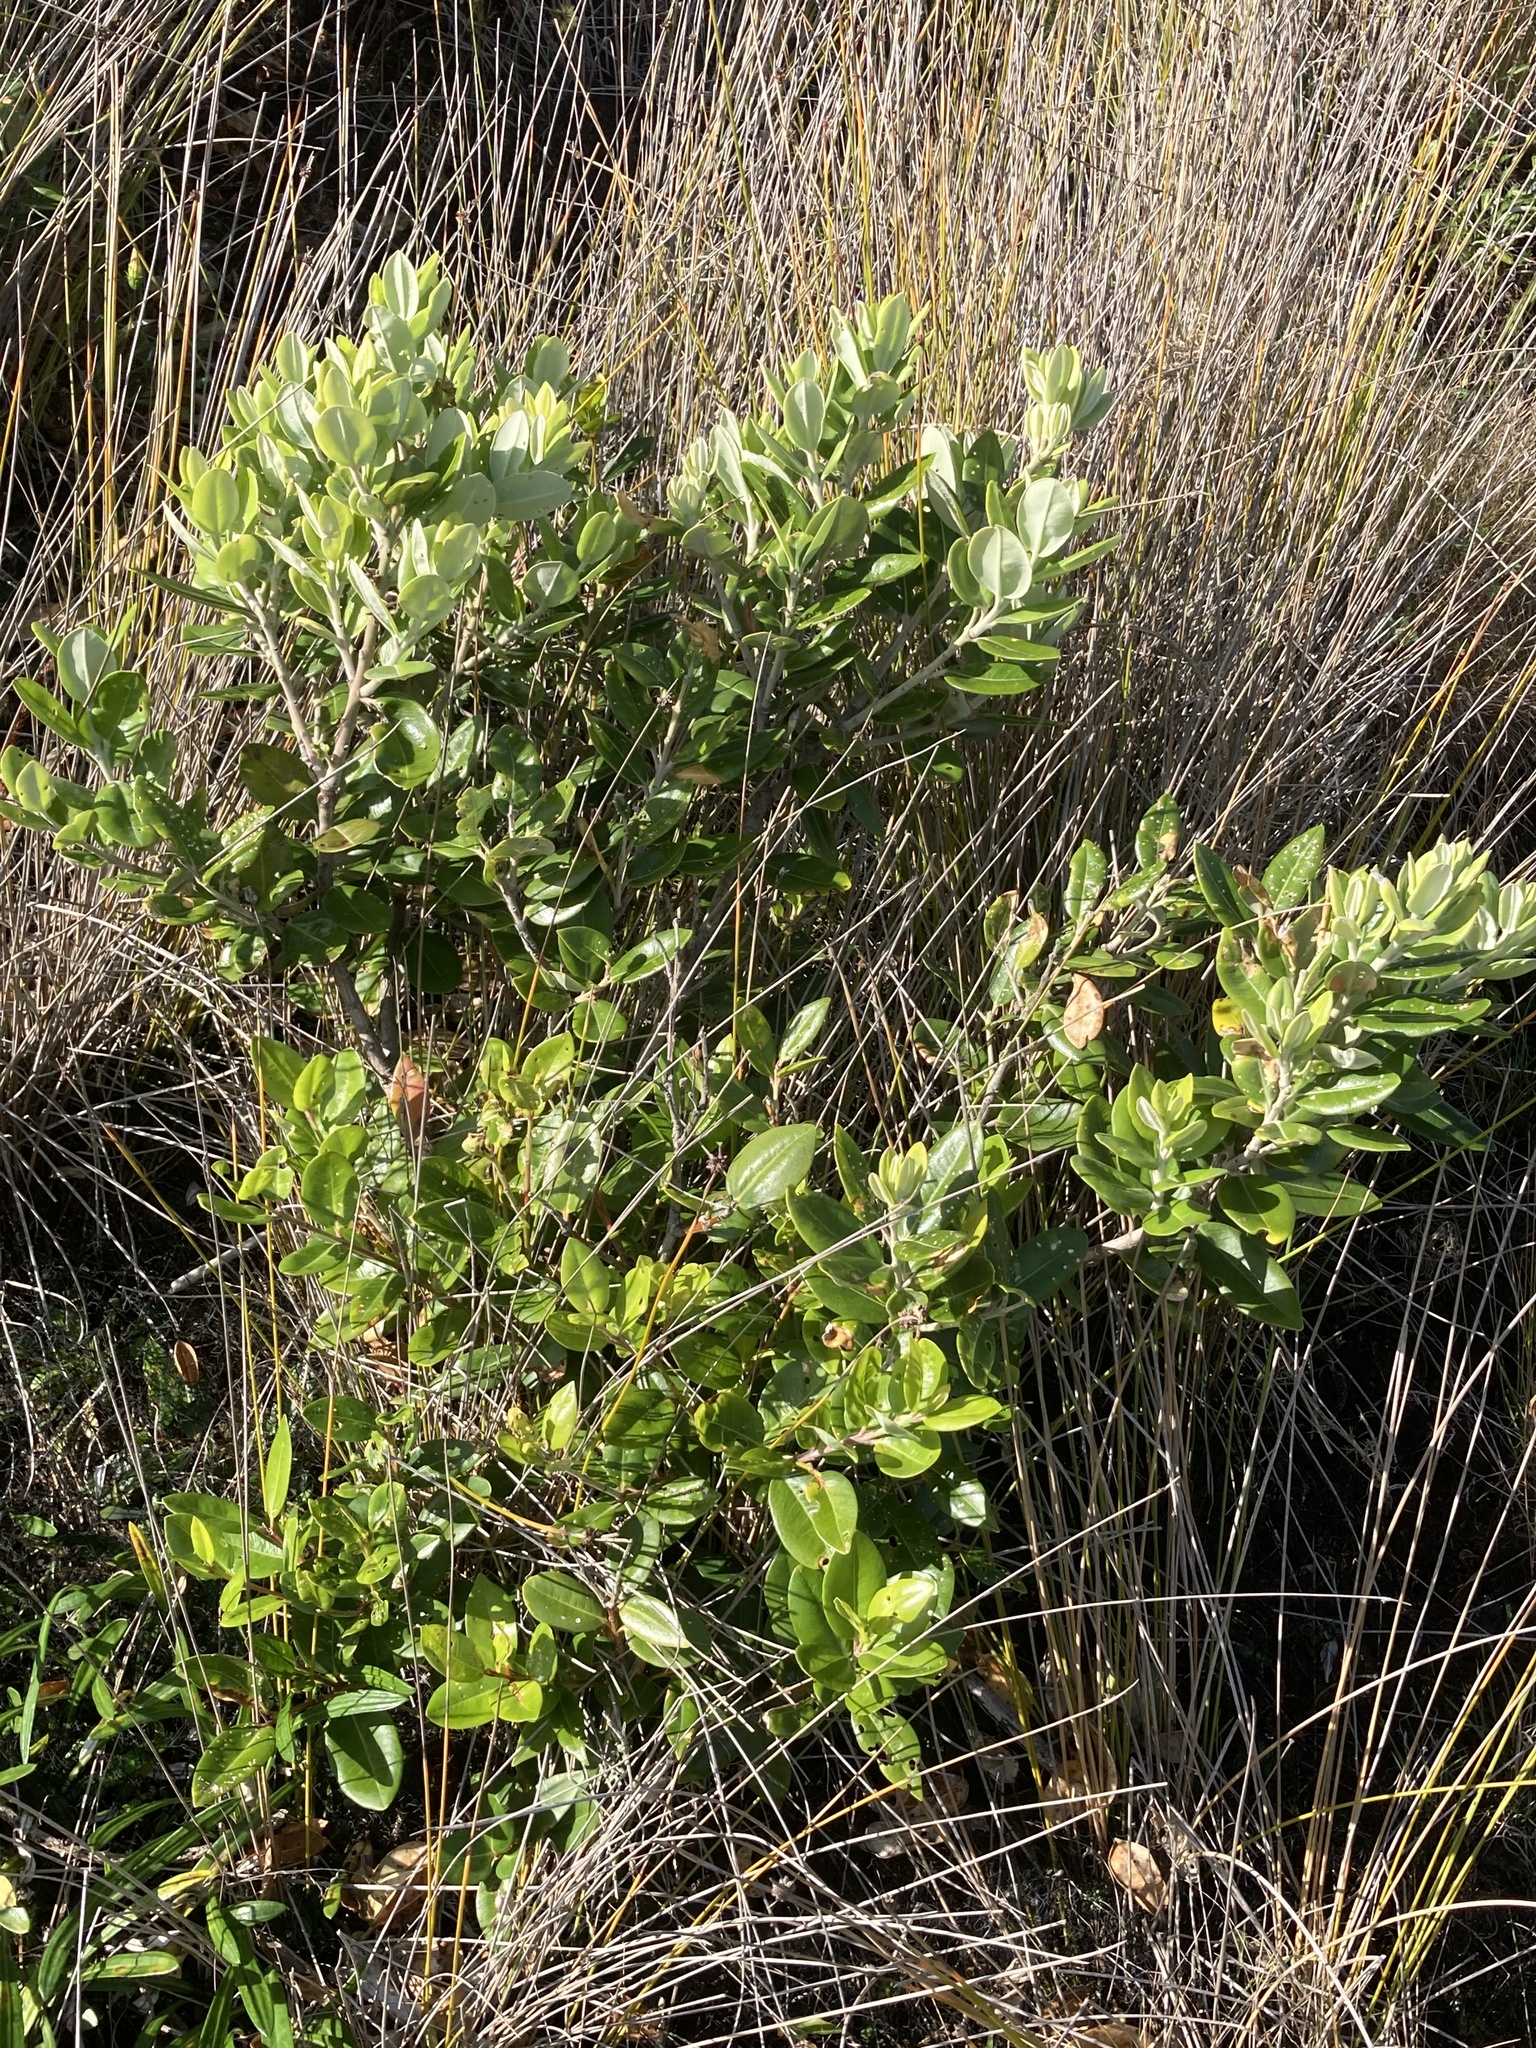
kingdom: Plantae
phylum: Tracheophyta
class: Magnoliopsida
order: Myrtales
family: Myrtaceae
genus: Metrosideros
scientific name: Metrosideros excelsa
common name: New zealand christmastree
